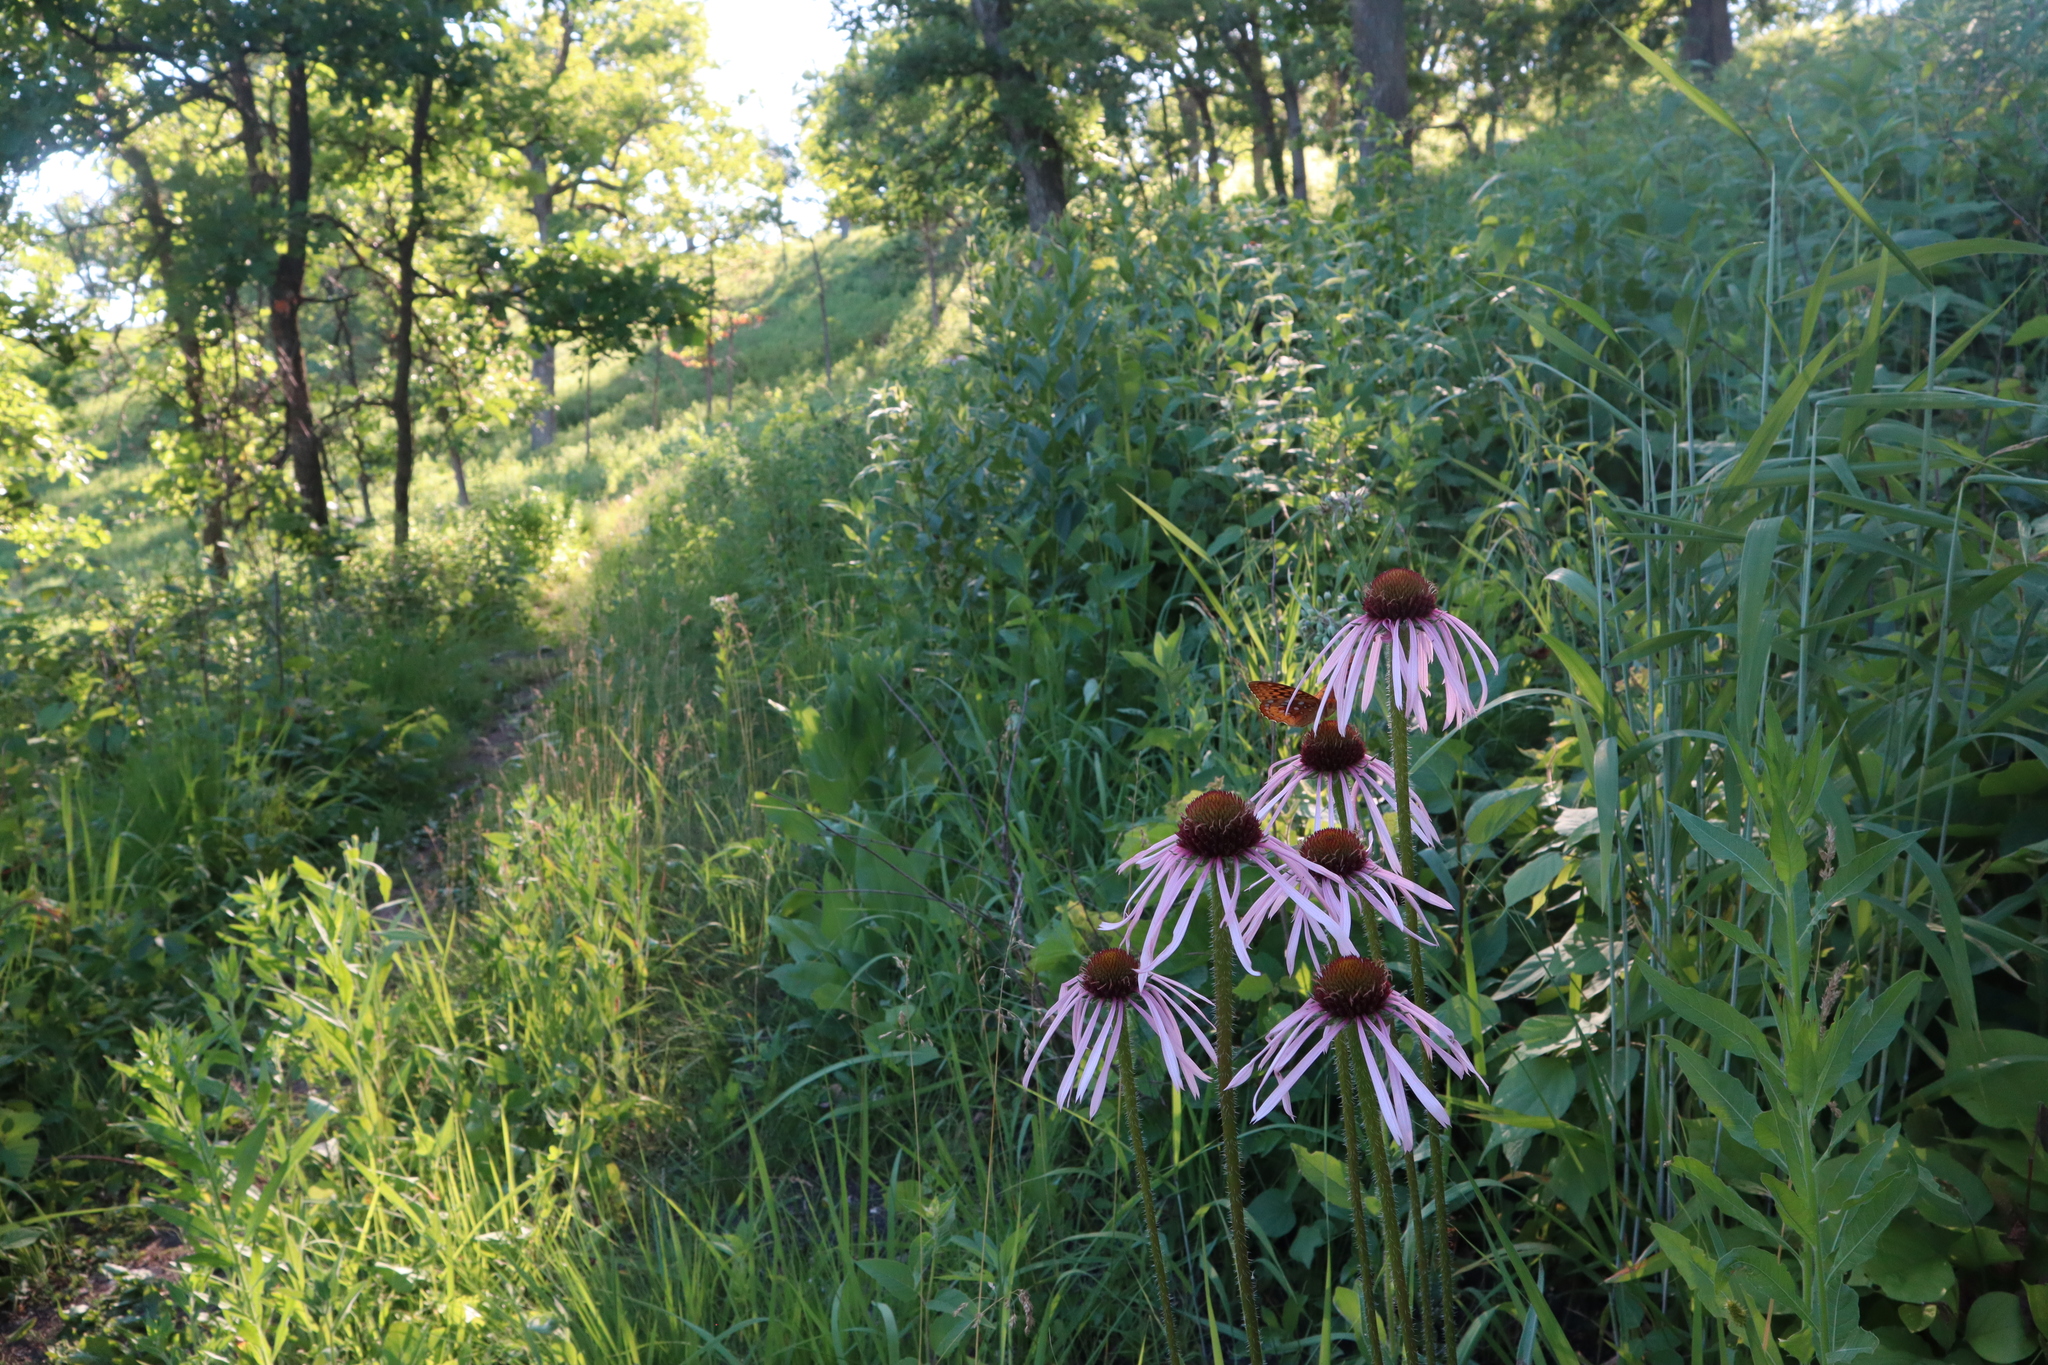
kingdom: Plantae
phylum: Tracheophyta
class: Magnoliopsida
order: Asterales
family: Asteraceae
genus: Echinacea
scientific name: Echinacea pallida
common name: Pale echinacea
